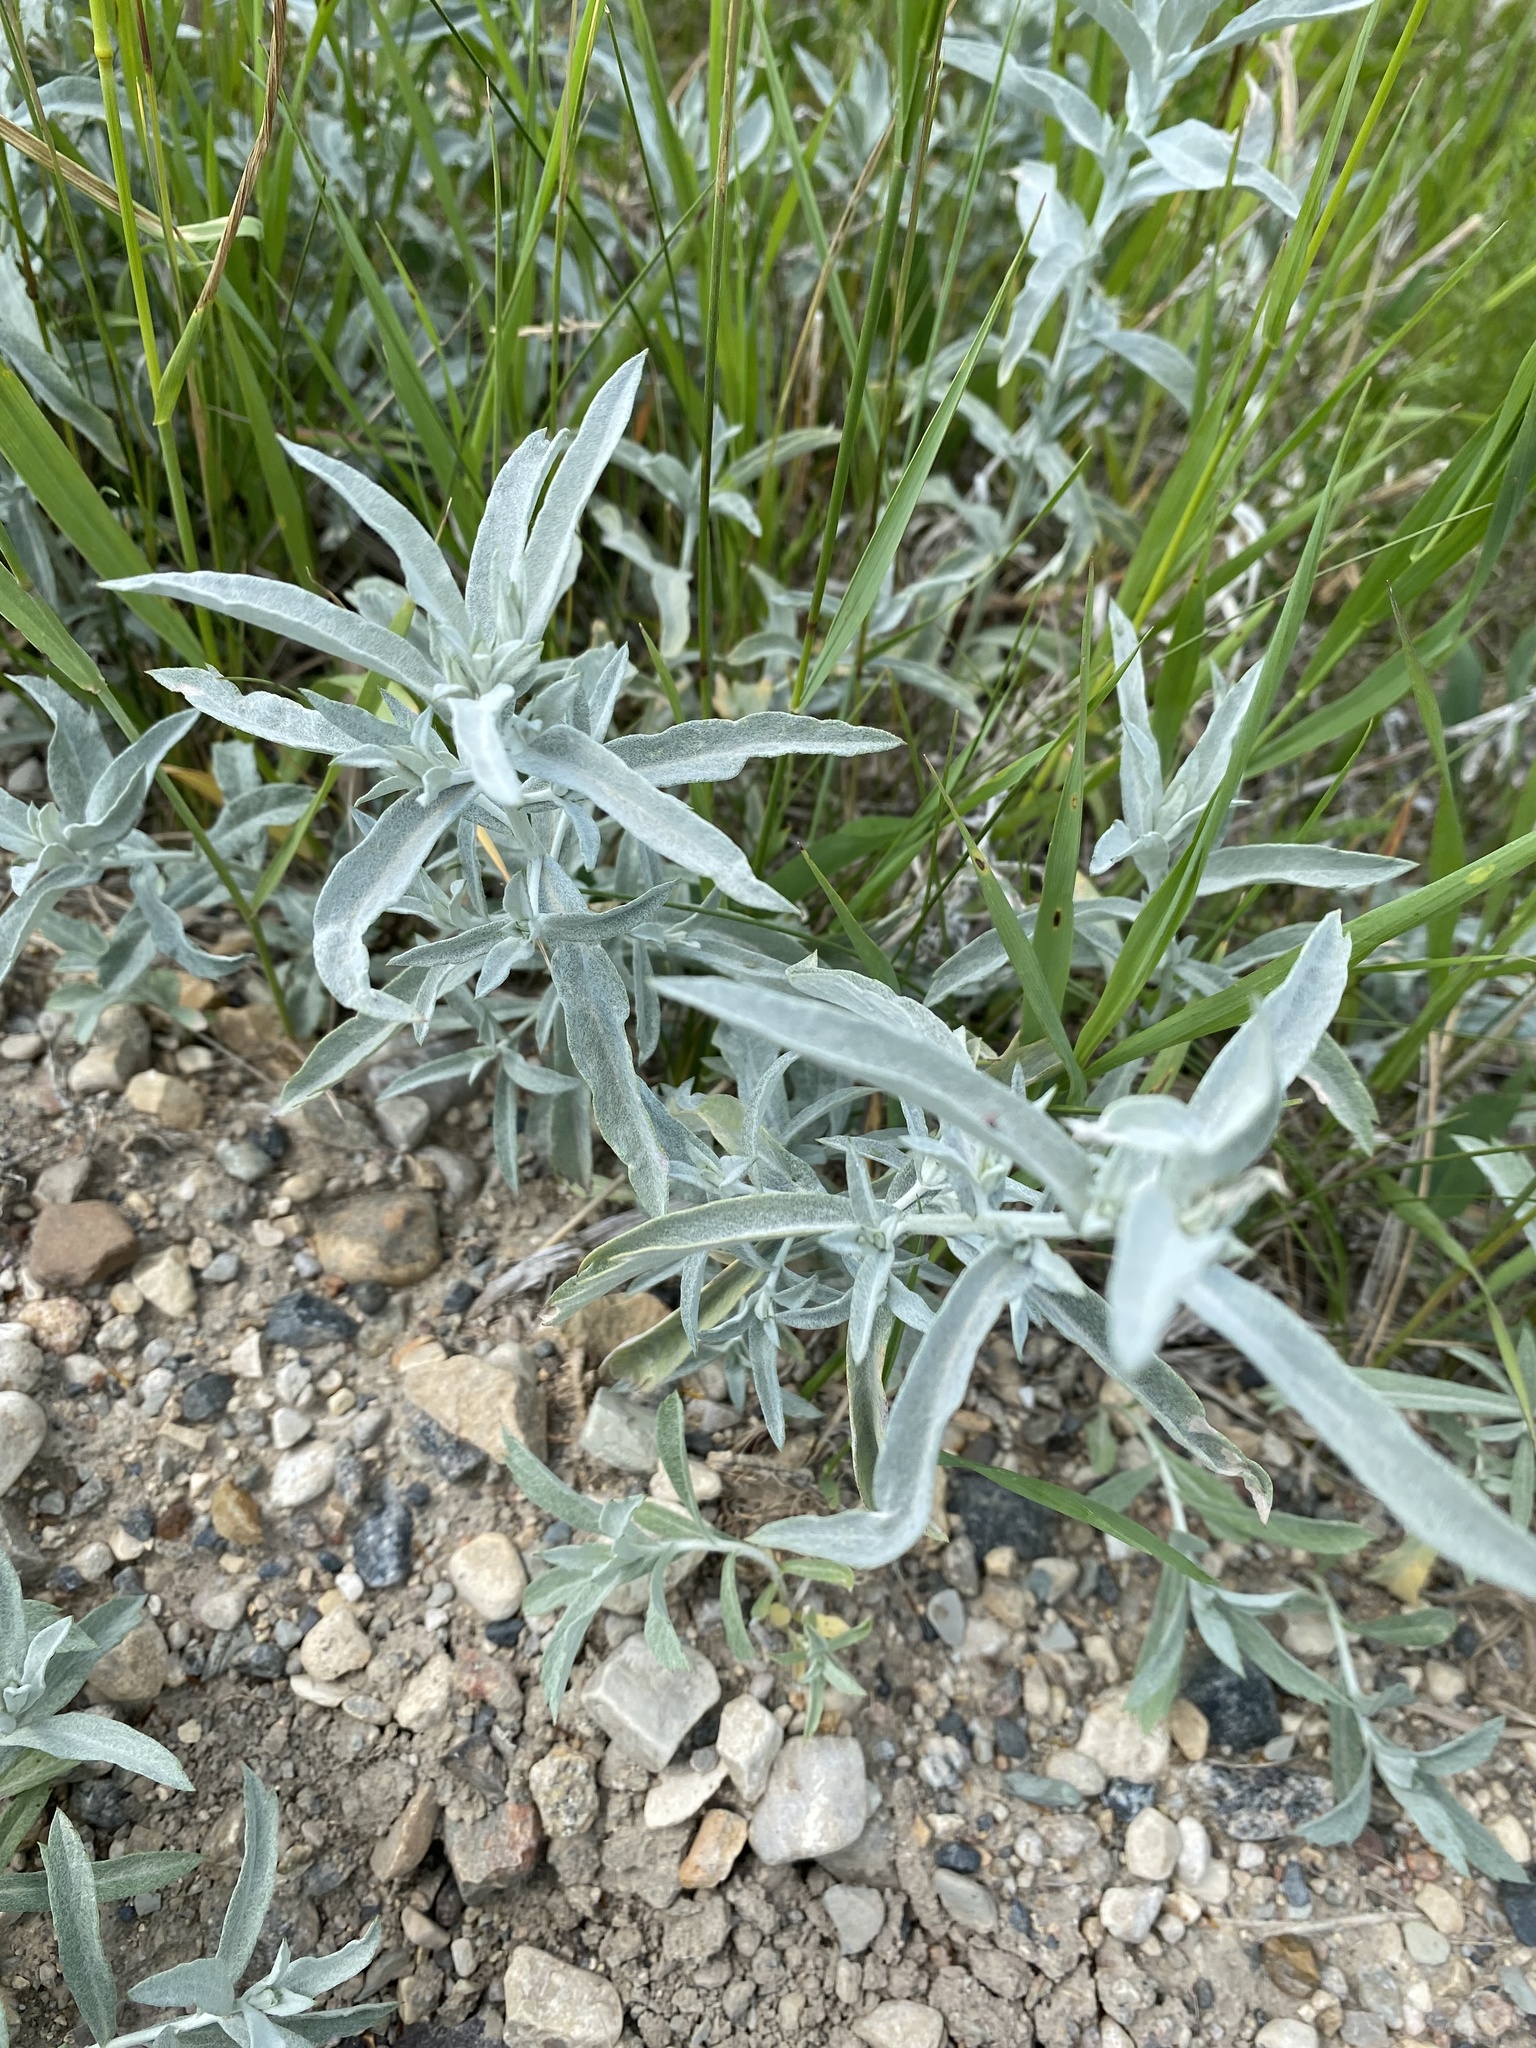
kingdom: Plantae
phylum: Tracheophyta
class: Magnoliopsida
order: Asterales
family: Asteraceae
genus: Artemisia
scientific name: Artemisia ludoviciana
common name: Western mugwort
